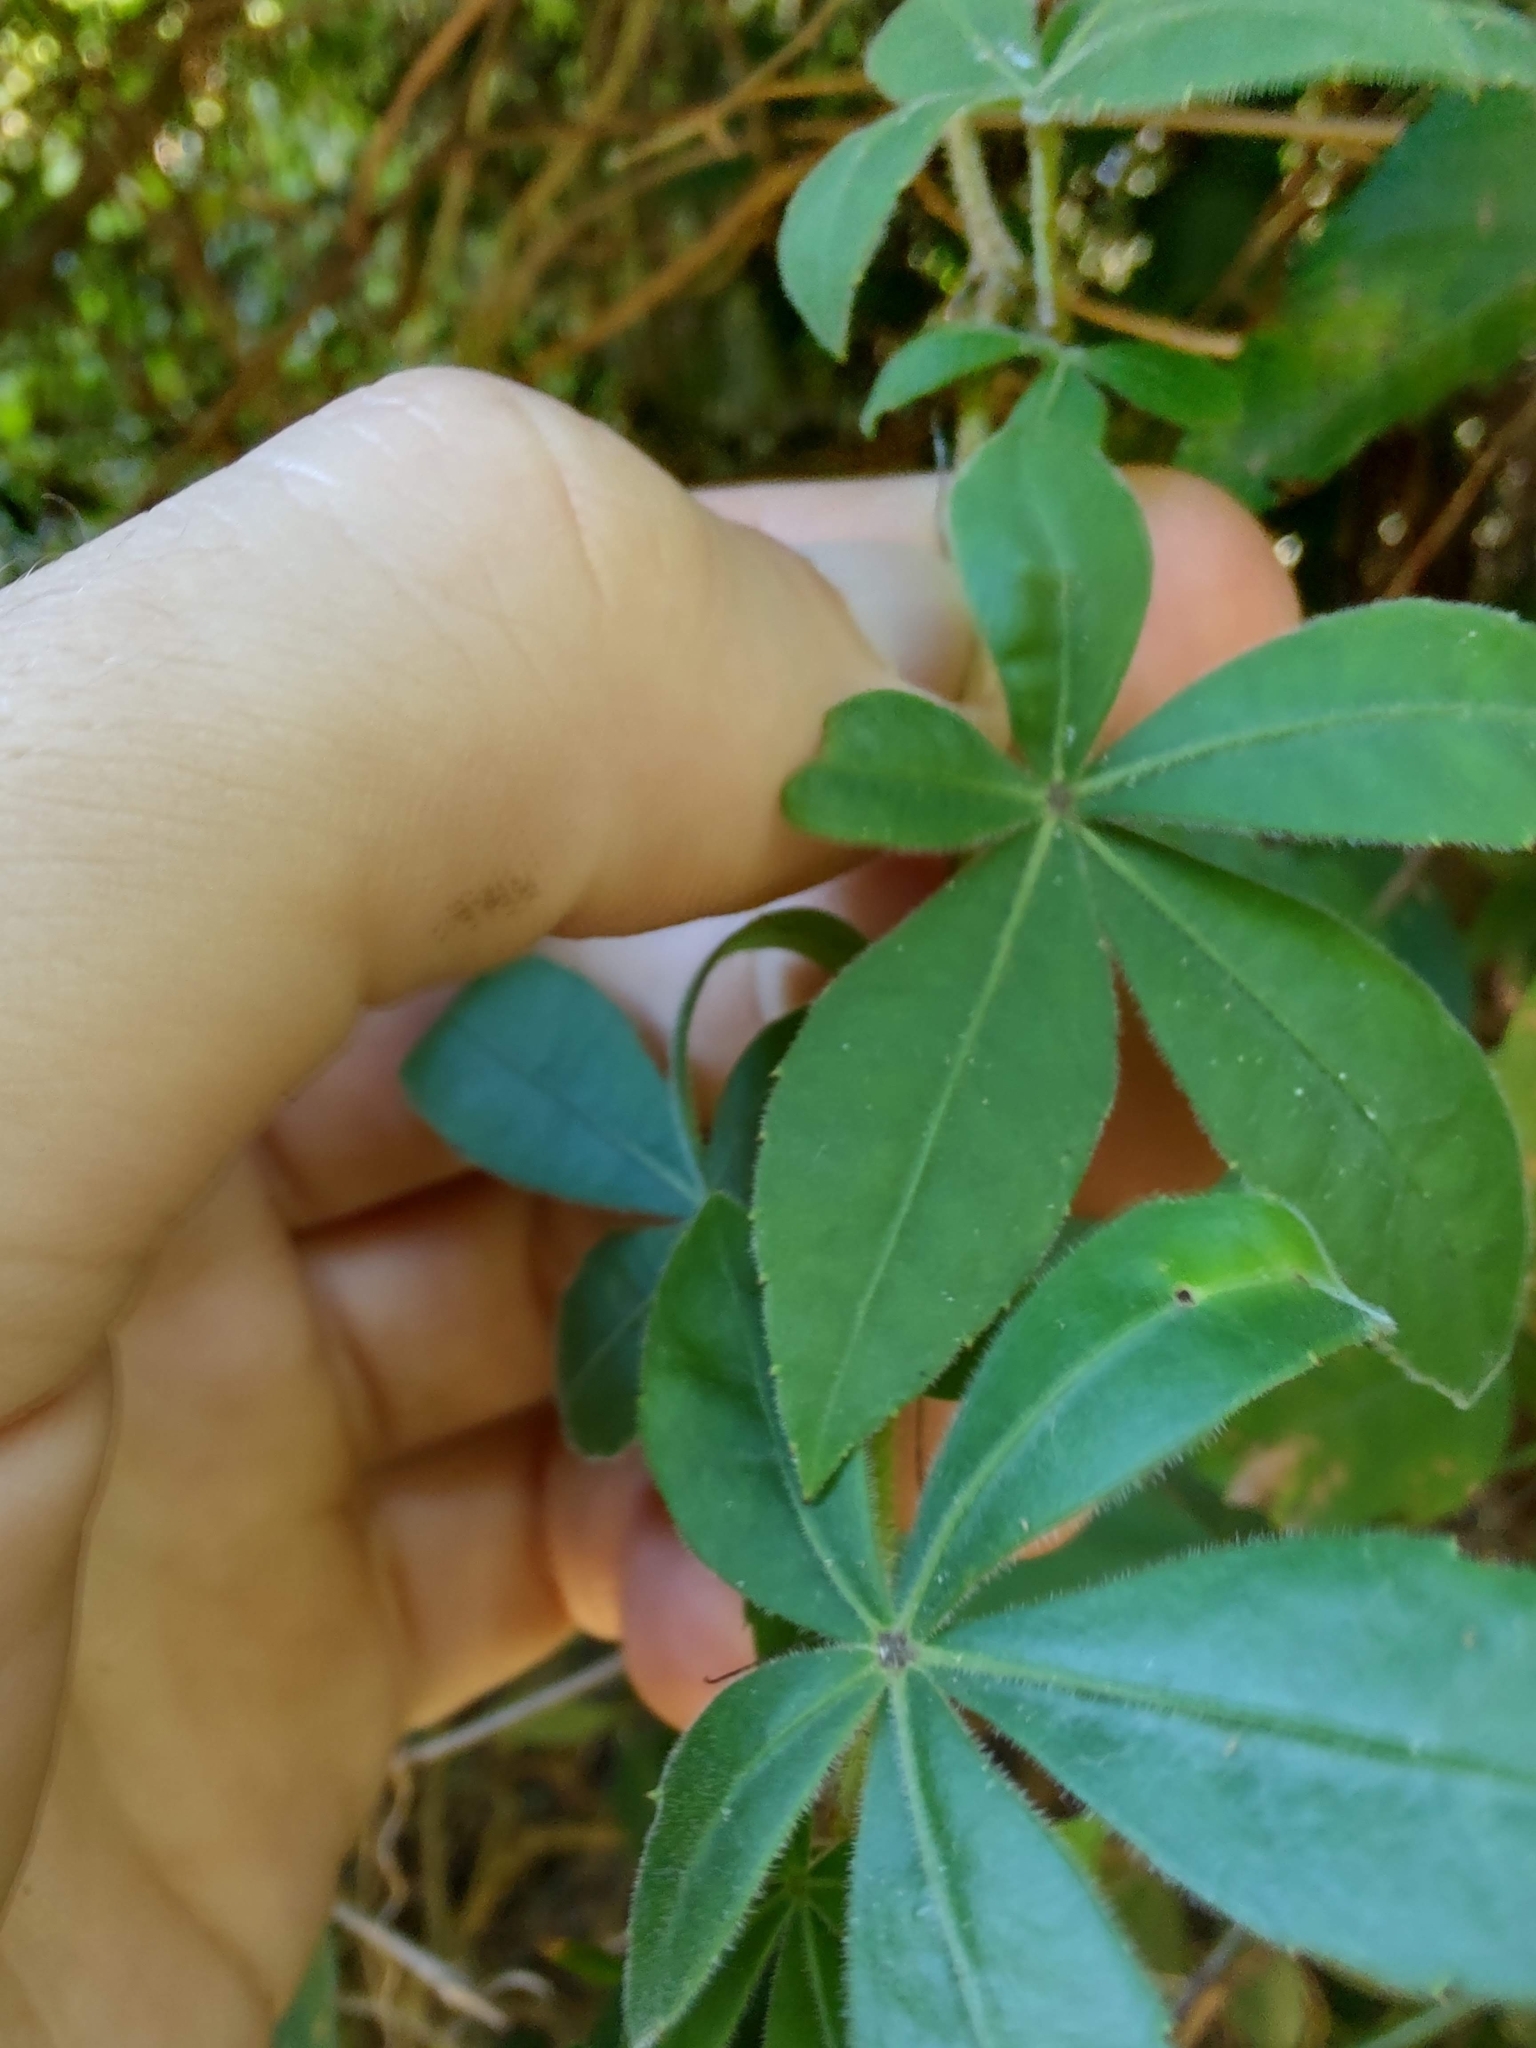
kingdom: Plantae
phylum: Tracheophyta
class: Magnoliopsida
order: Vitales
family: Vitaceae
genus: Clematicissus
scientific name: Clematicissus striata
